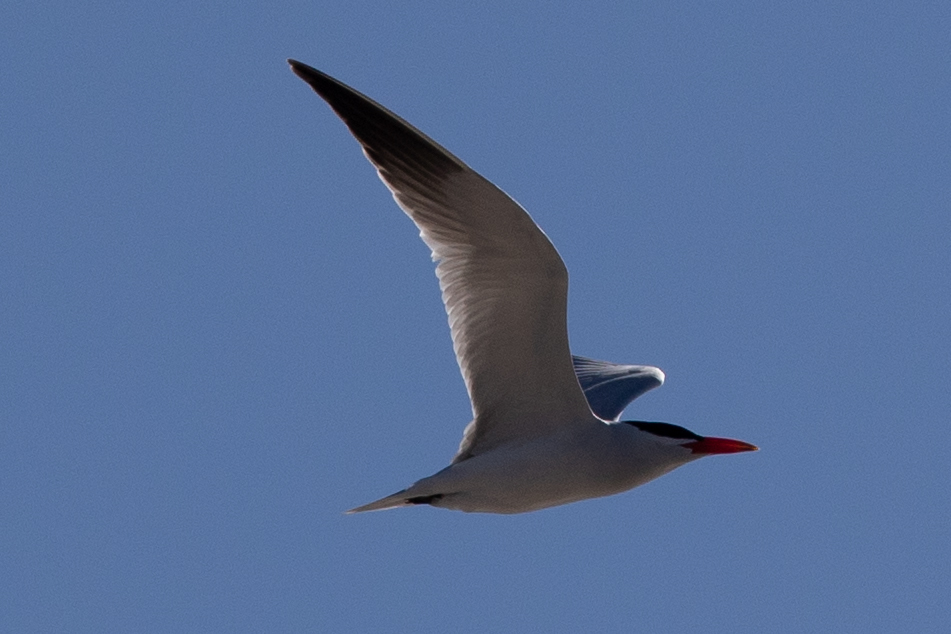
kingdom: Animalia
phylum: Chordata
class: Aves
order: Charadriiformes
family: Laridae
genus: Hydroprogne
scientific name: Hydroprogne caspia
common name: Caspian tern
